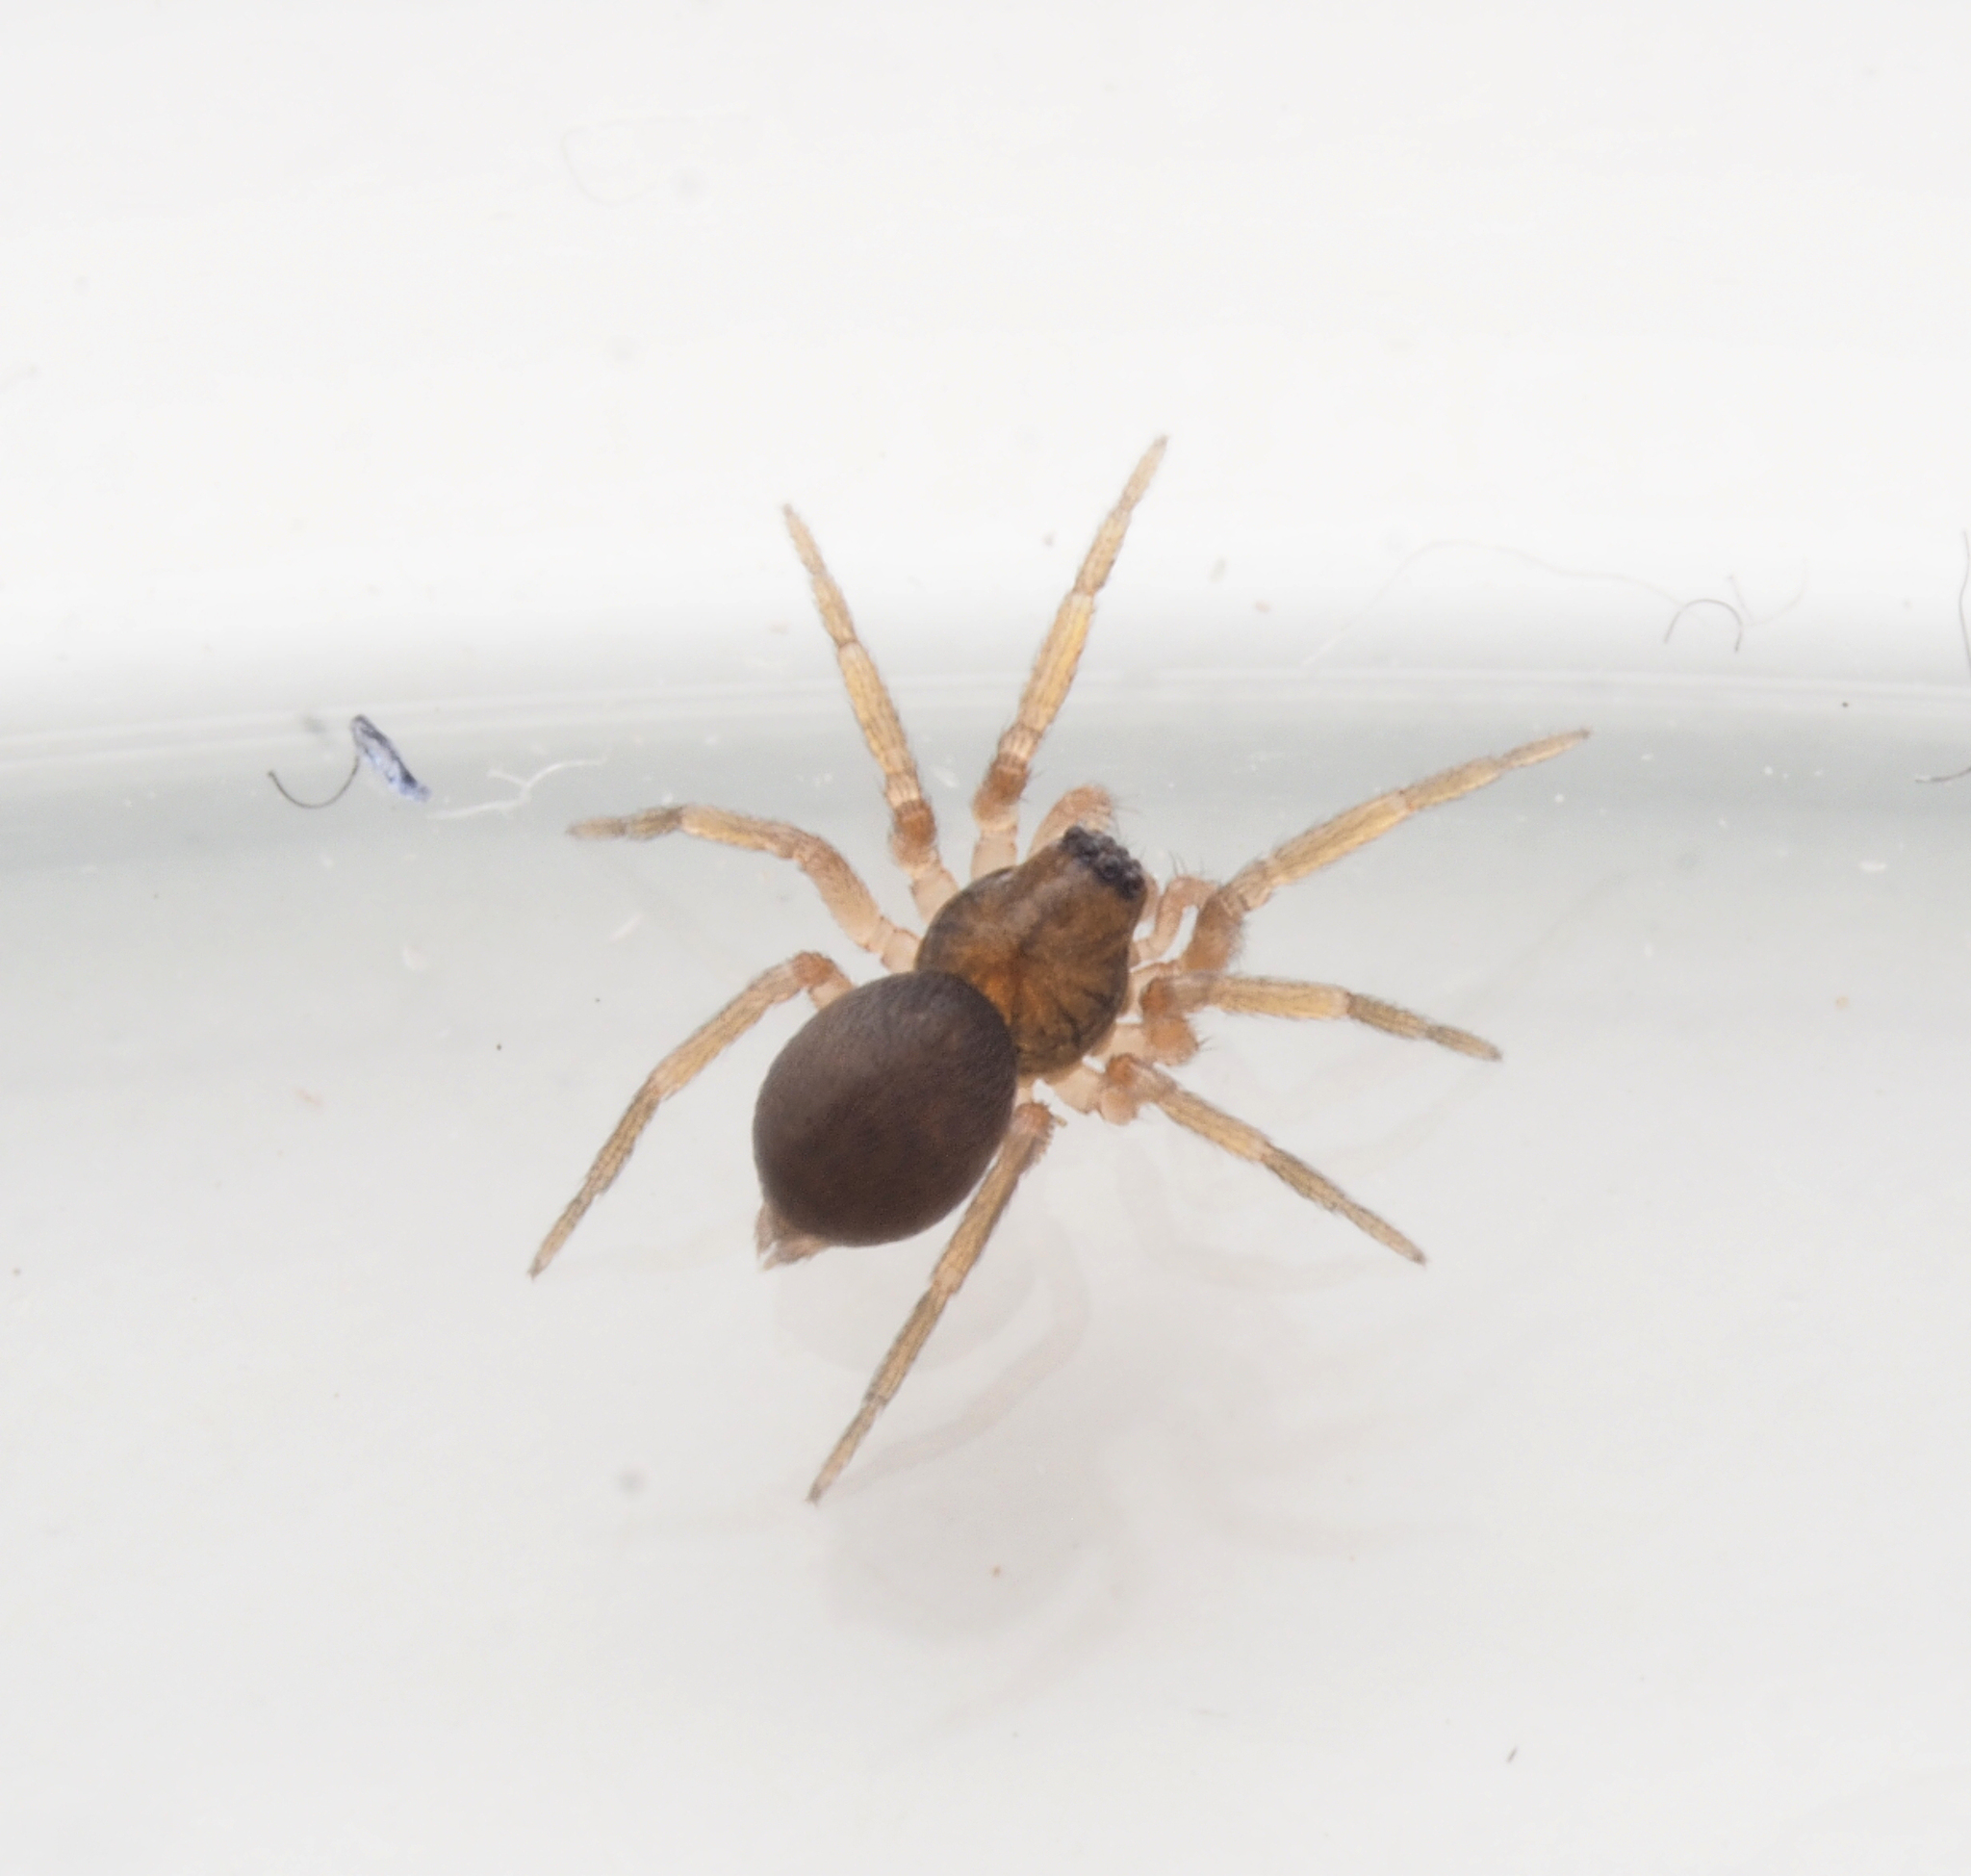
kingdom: Animalia
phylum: Arthropoda
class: Arachnida
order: Araneae
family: Toxopidae
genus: Midgee
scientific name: Midgee
